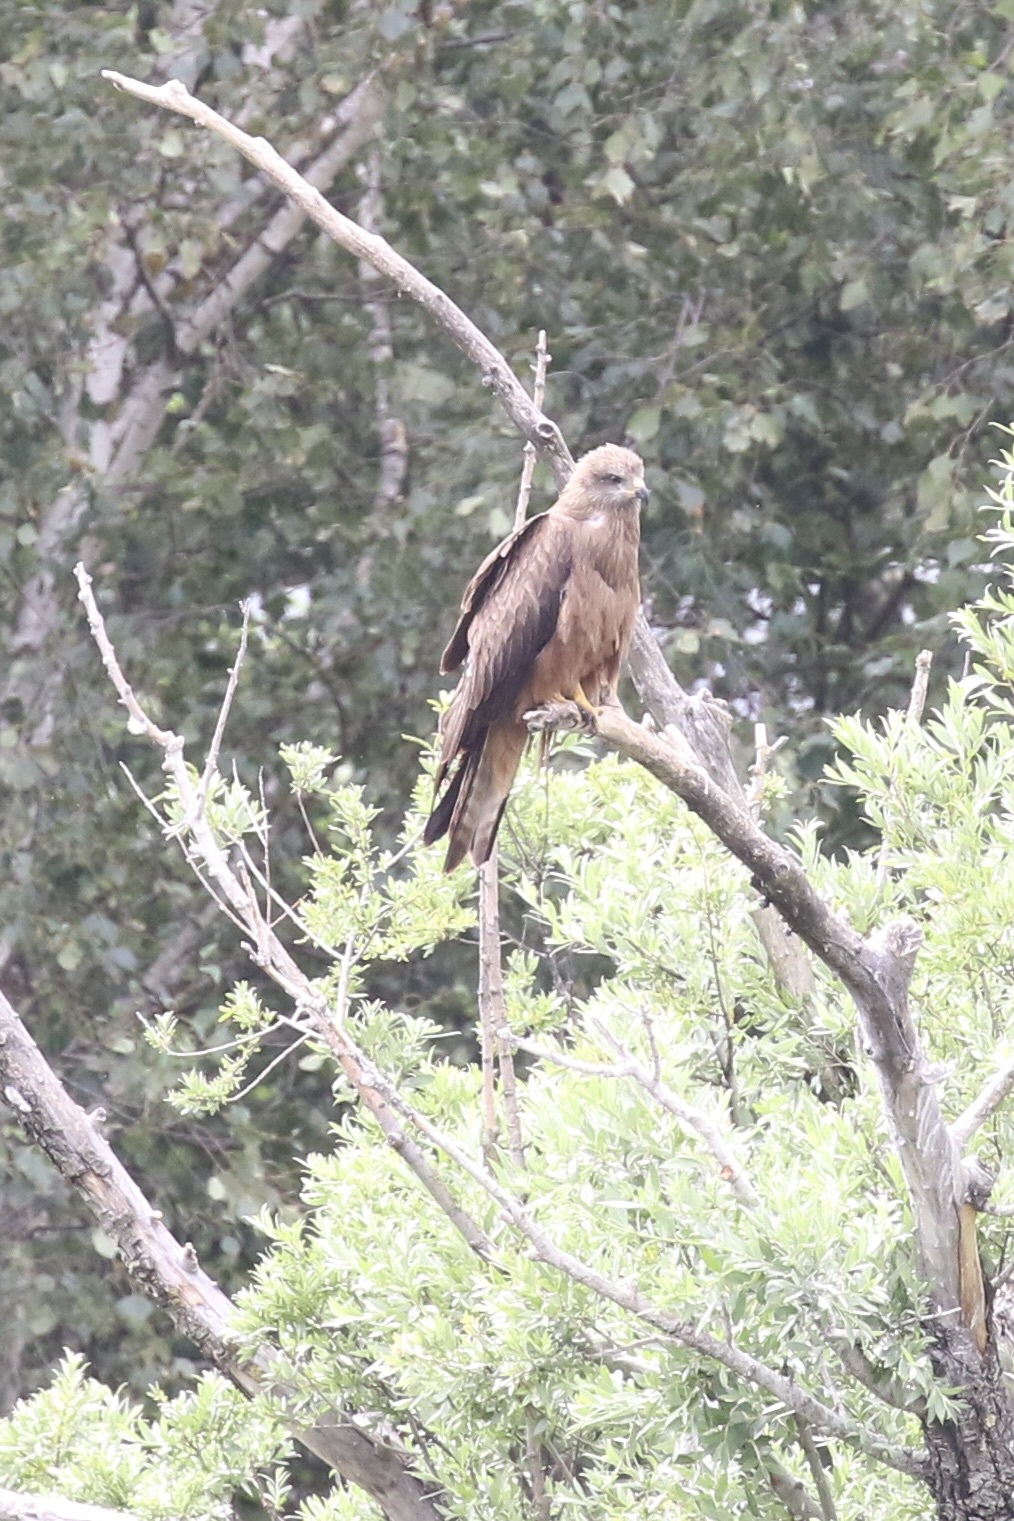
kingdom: Animalia
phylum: Chordata
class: Aves
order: Accipitriformes
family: Accipitridae
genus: Milvus
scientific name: Milvus migrans
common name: Black kite
